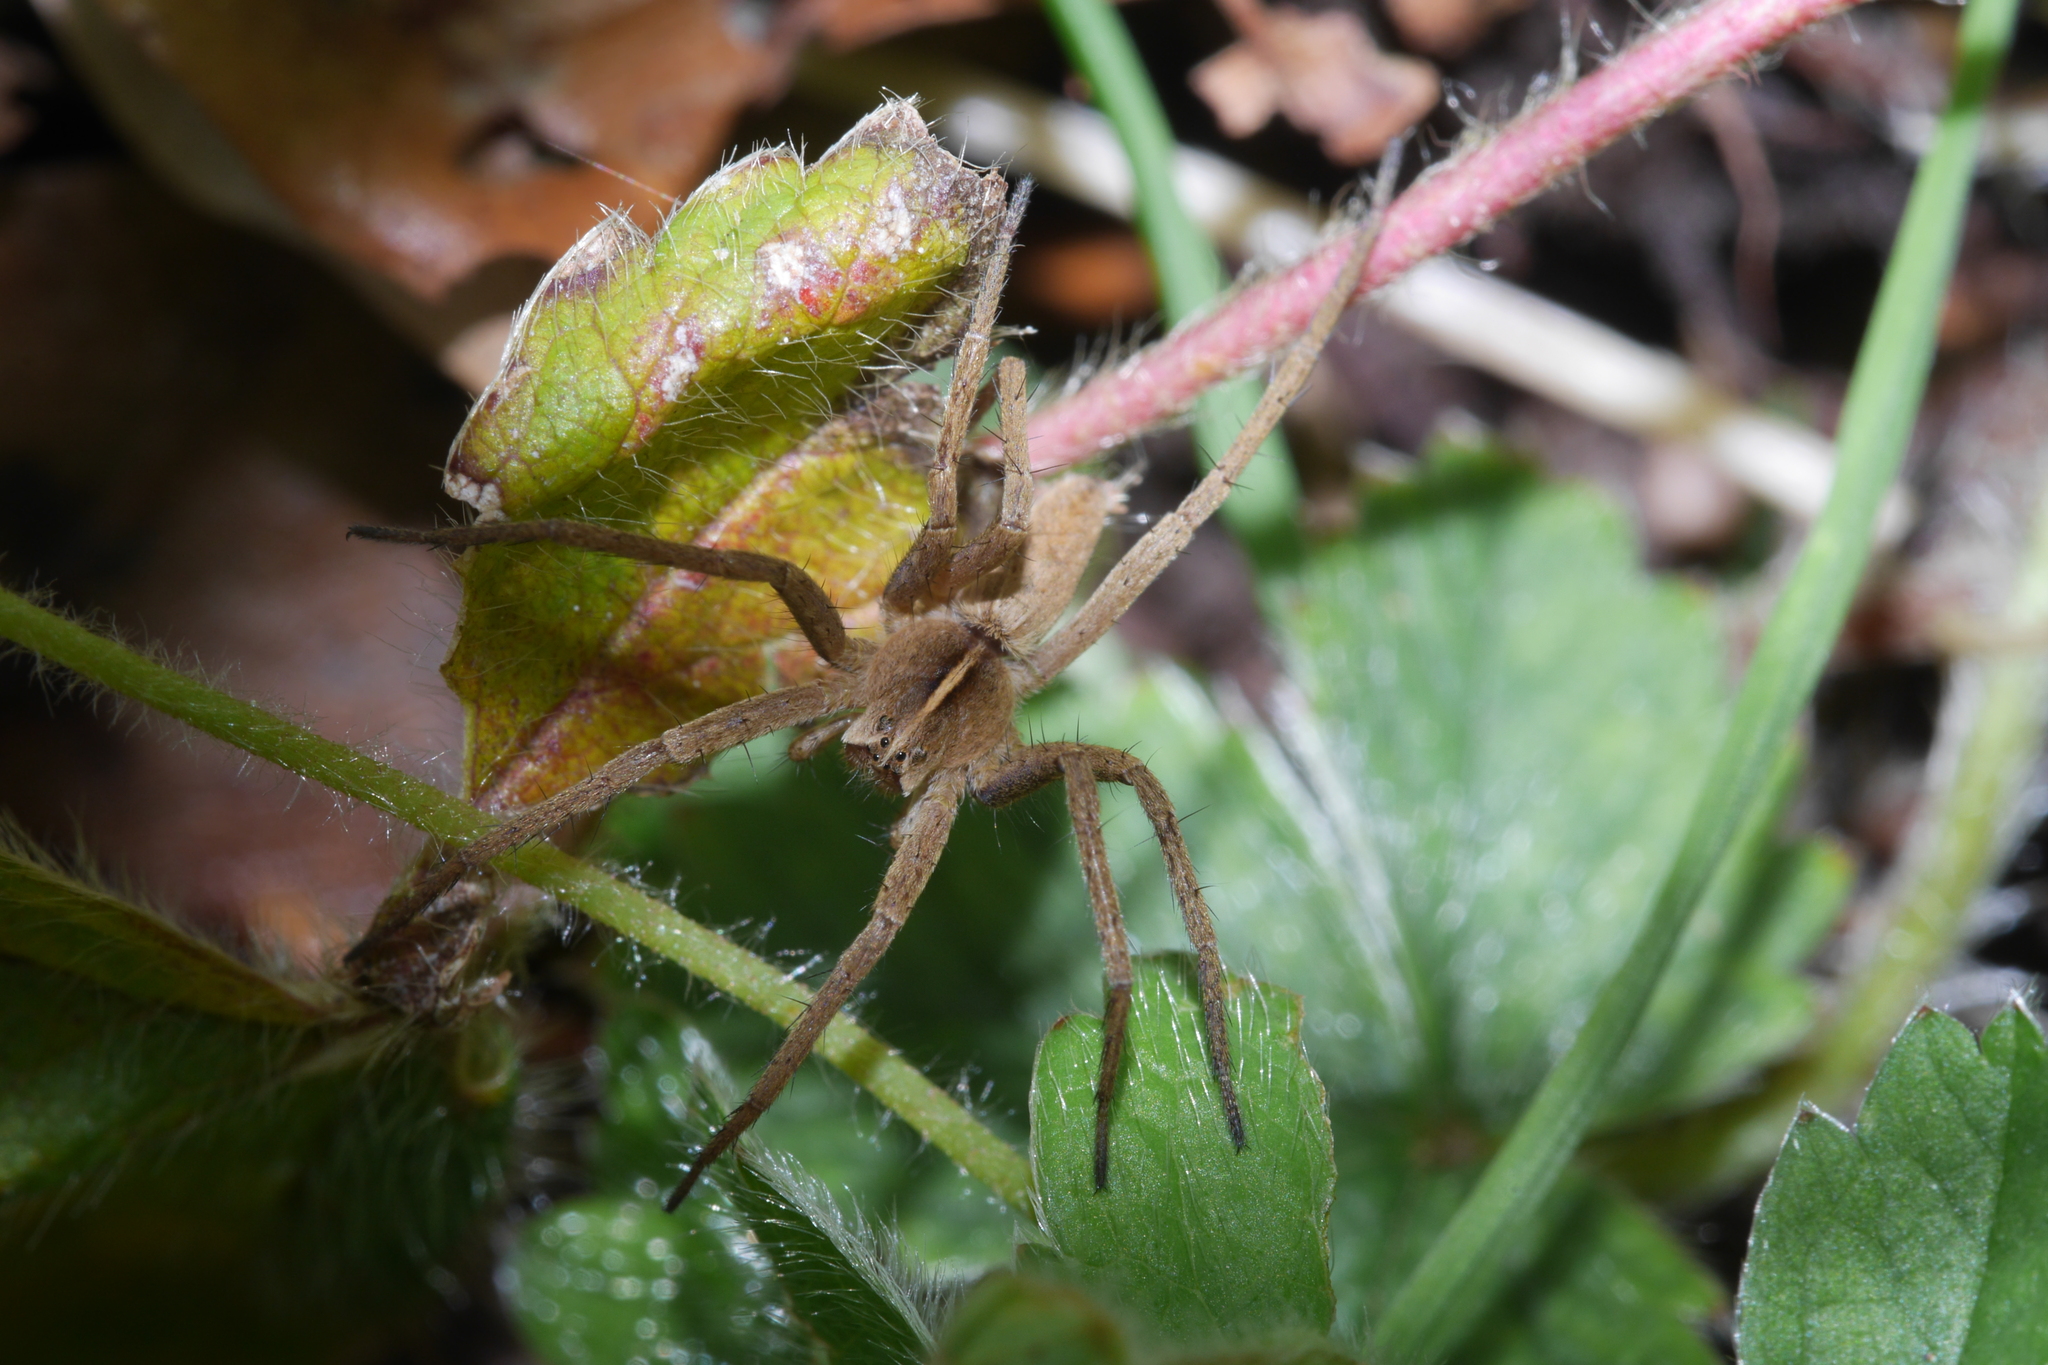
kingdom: Animalia
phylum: Arthropoda
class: Arachnida
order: Araneae
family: Pisauridae
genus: Pisaura
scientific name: Pisaura mirabilis
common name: Tent spider
